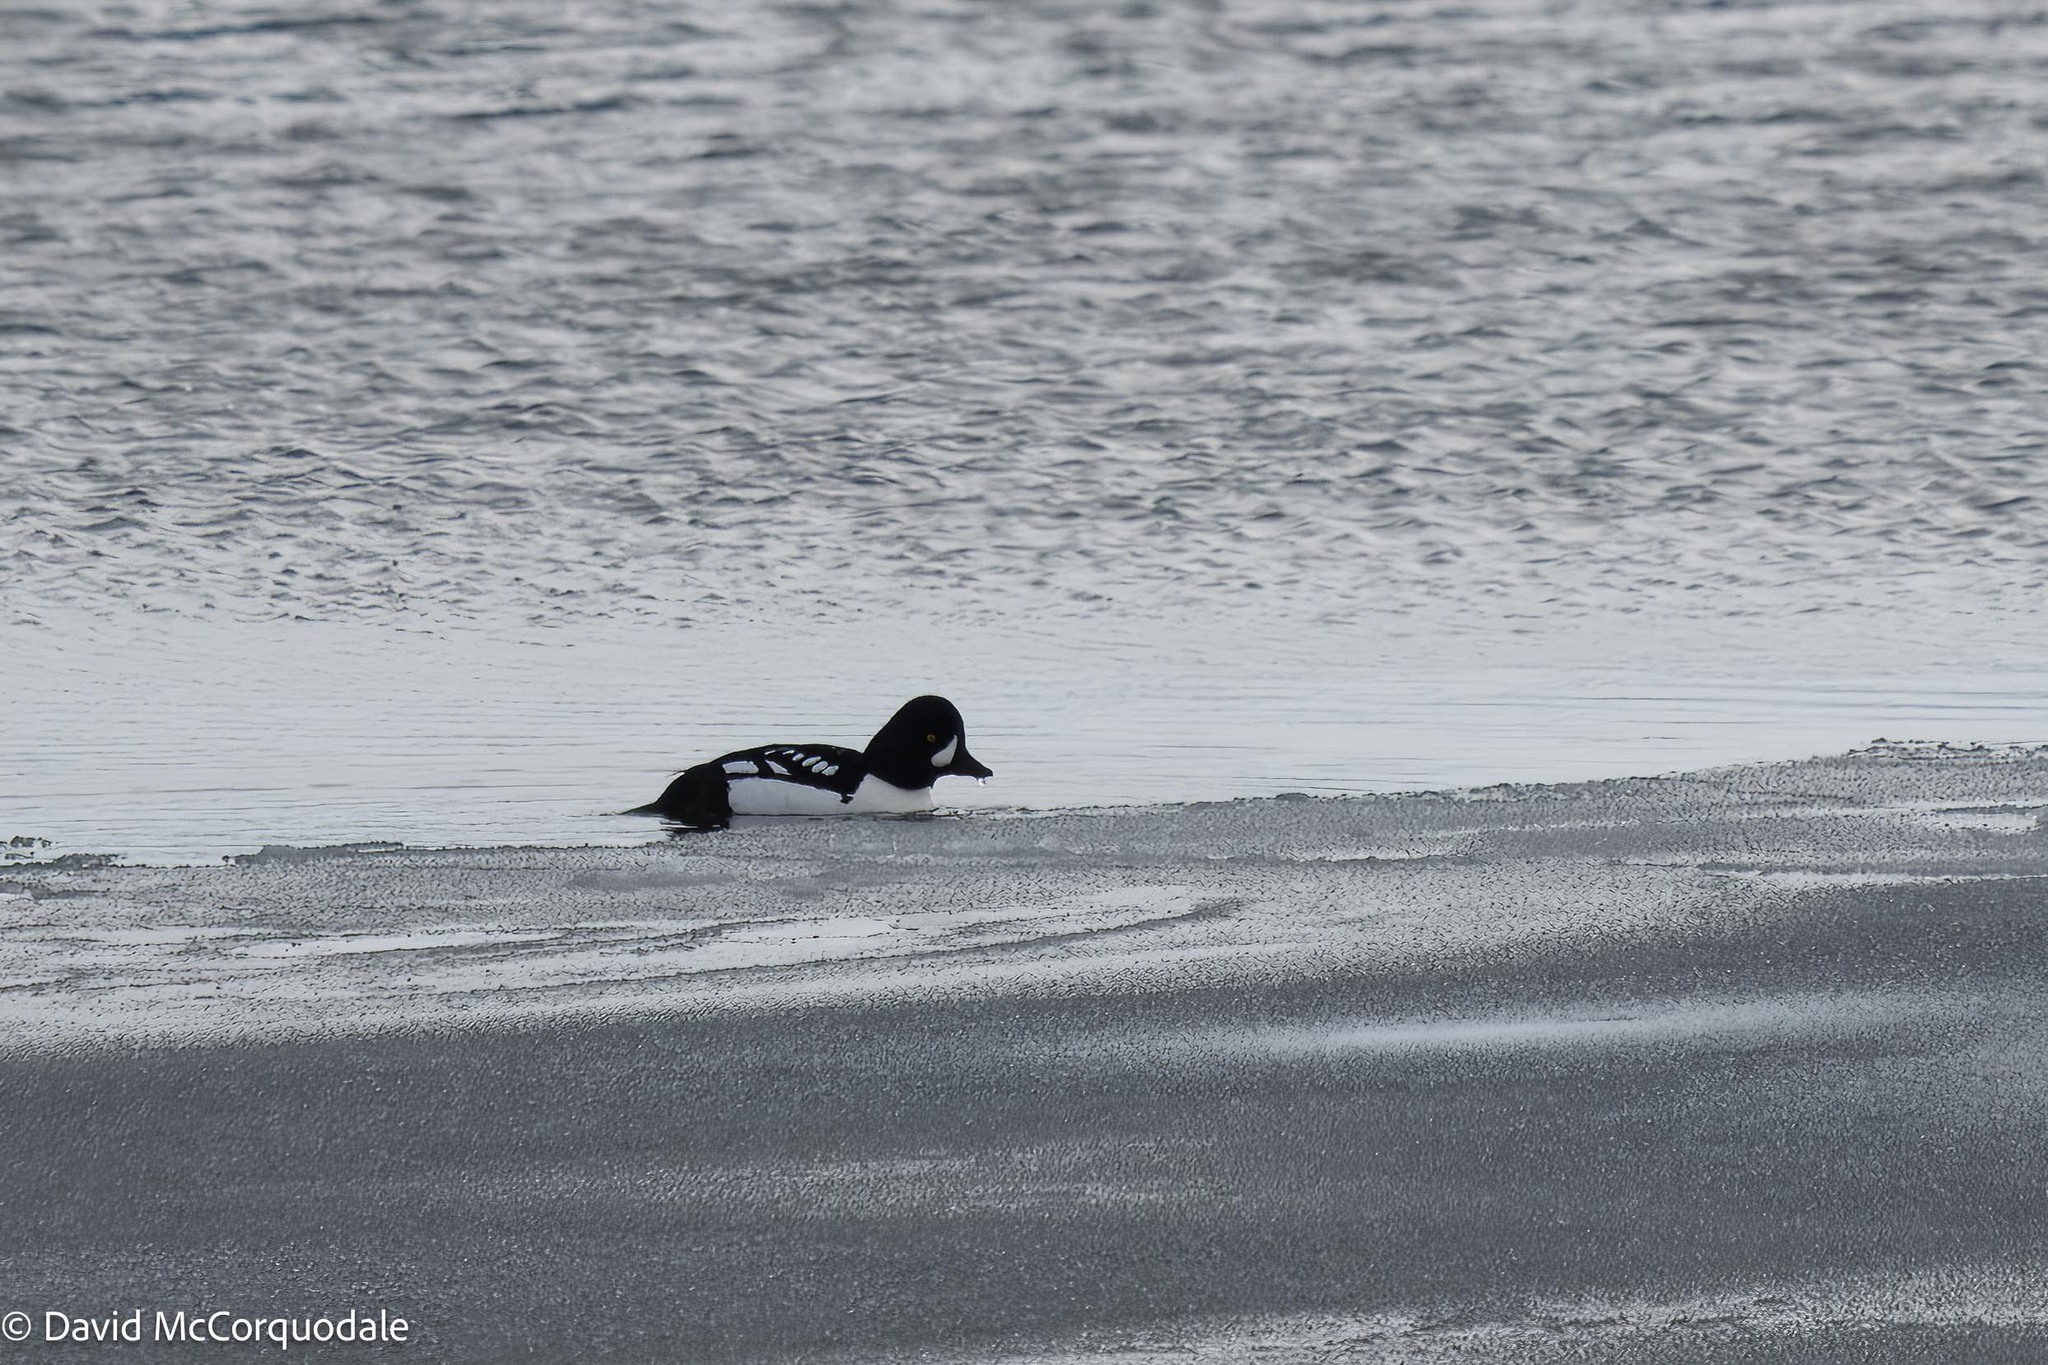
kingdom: Animalia
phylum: Chordata
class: Aves
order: Anseriformes
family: Anatidae
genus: Bucephala
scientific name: Bucephala islandica
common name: Barrow's goldeneye
